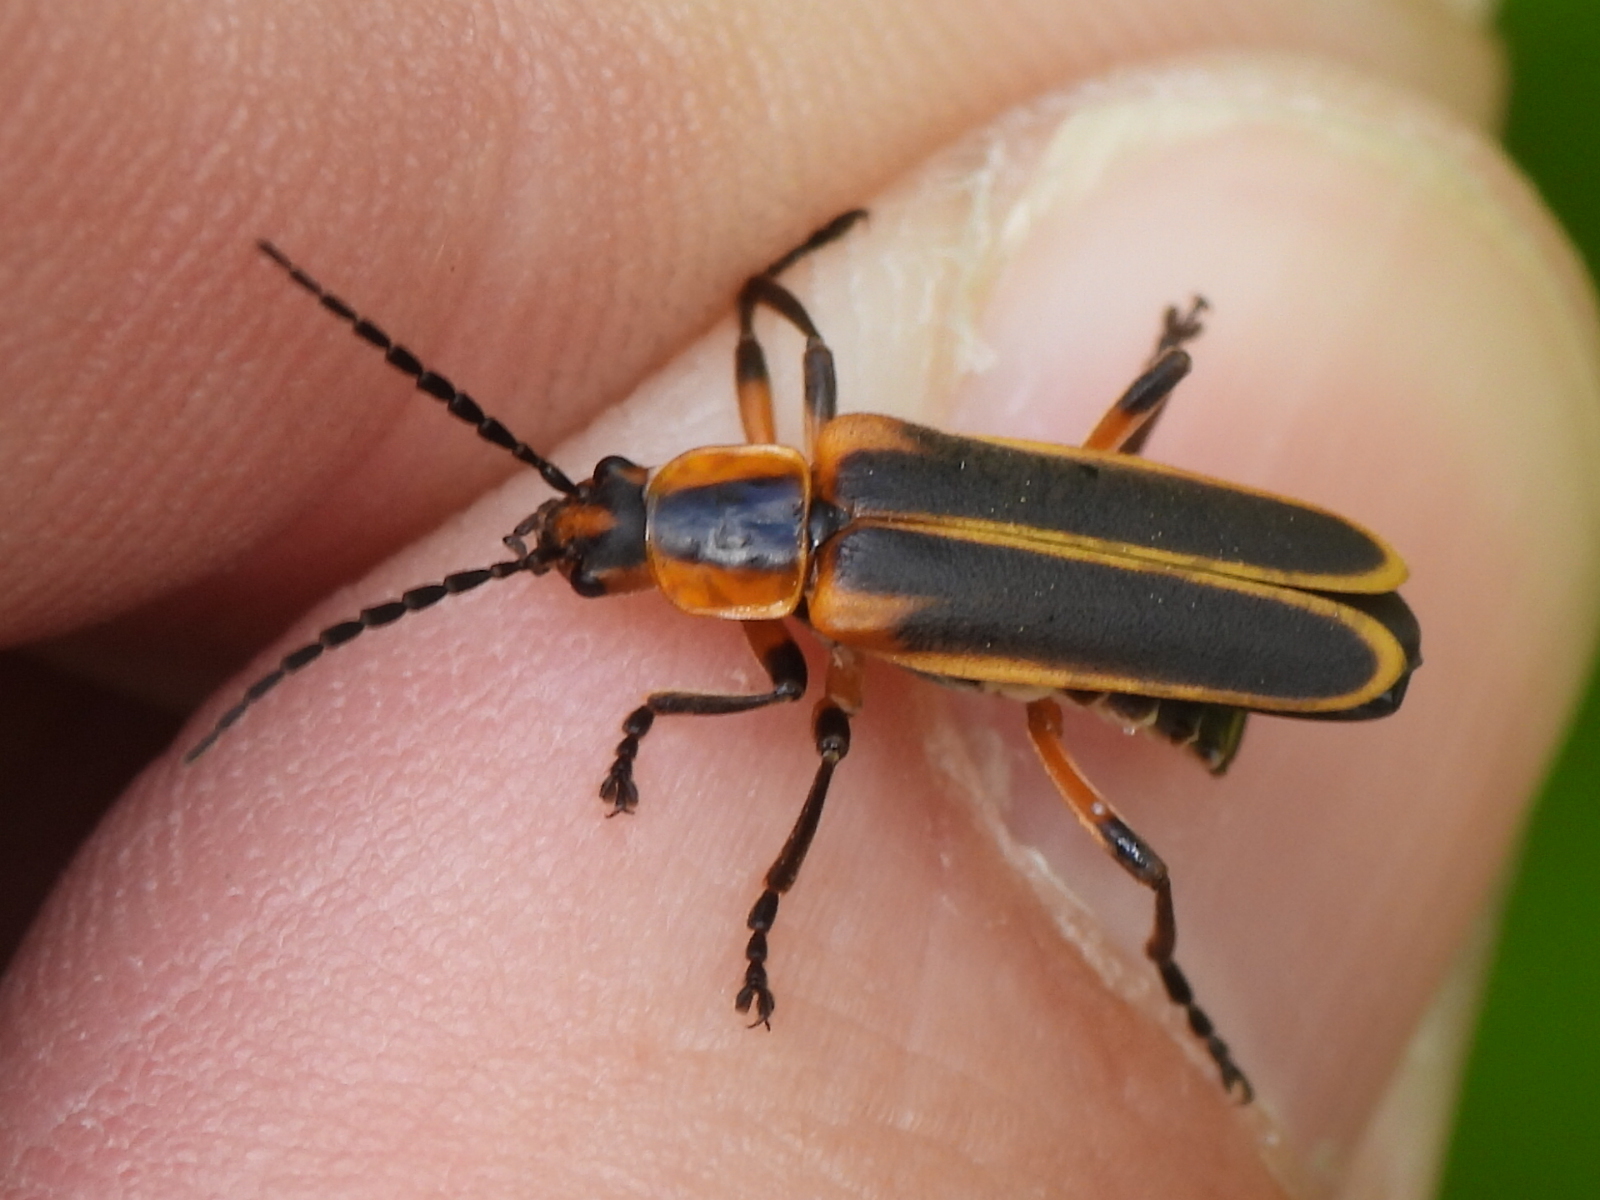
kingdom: Animalia
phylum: Arthropoda
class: Insecta
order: Coleoptera
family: Cantharidae
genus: Chauliognathus
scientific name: Chauliognathus marginatus
